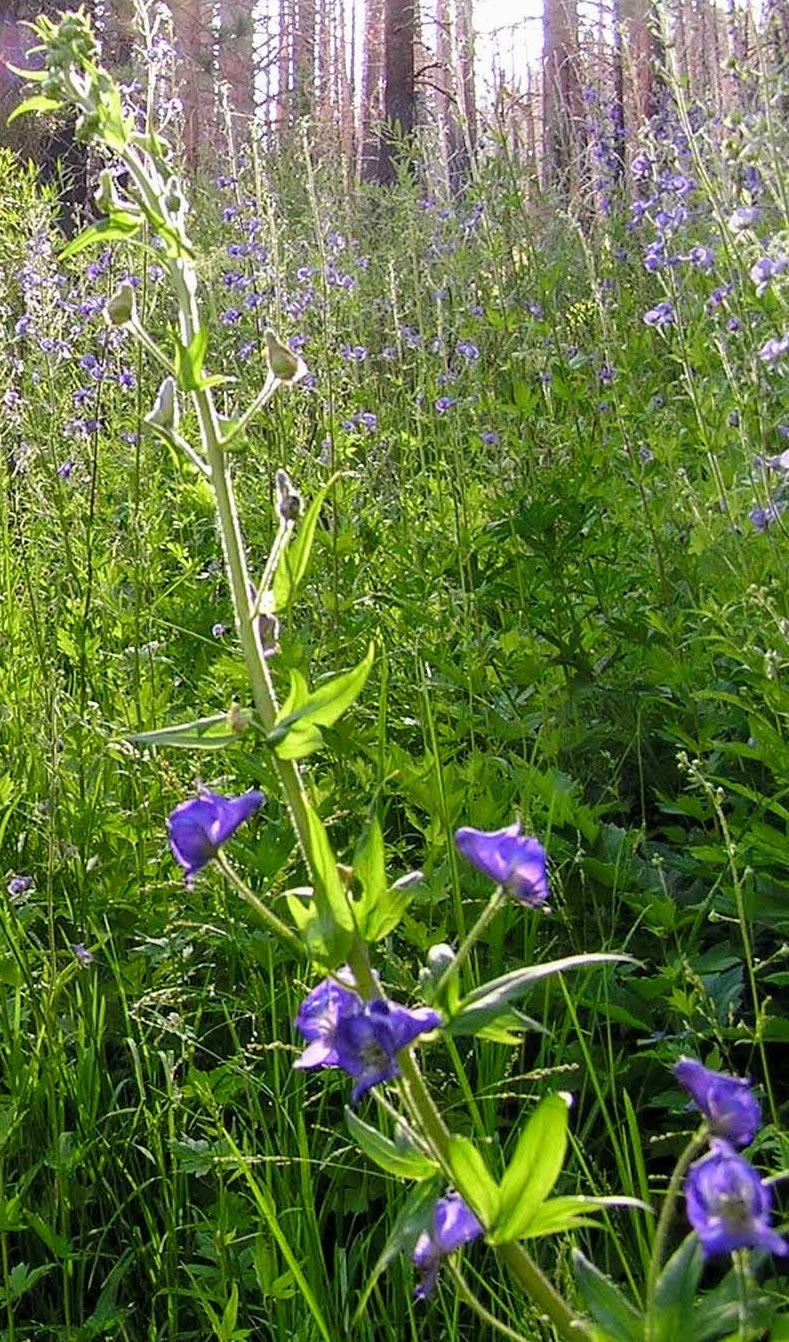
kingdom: Plantae
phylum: Tracheophyta
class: Magnoliopsida
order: Ranunculales
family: Ranunculaceae
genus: Aconitum
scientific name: Aconitum columbianum
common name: Columbia aconite
